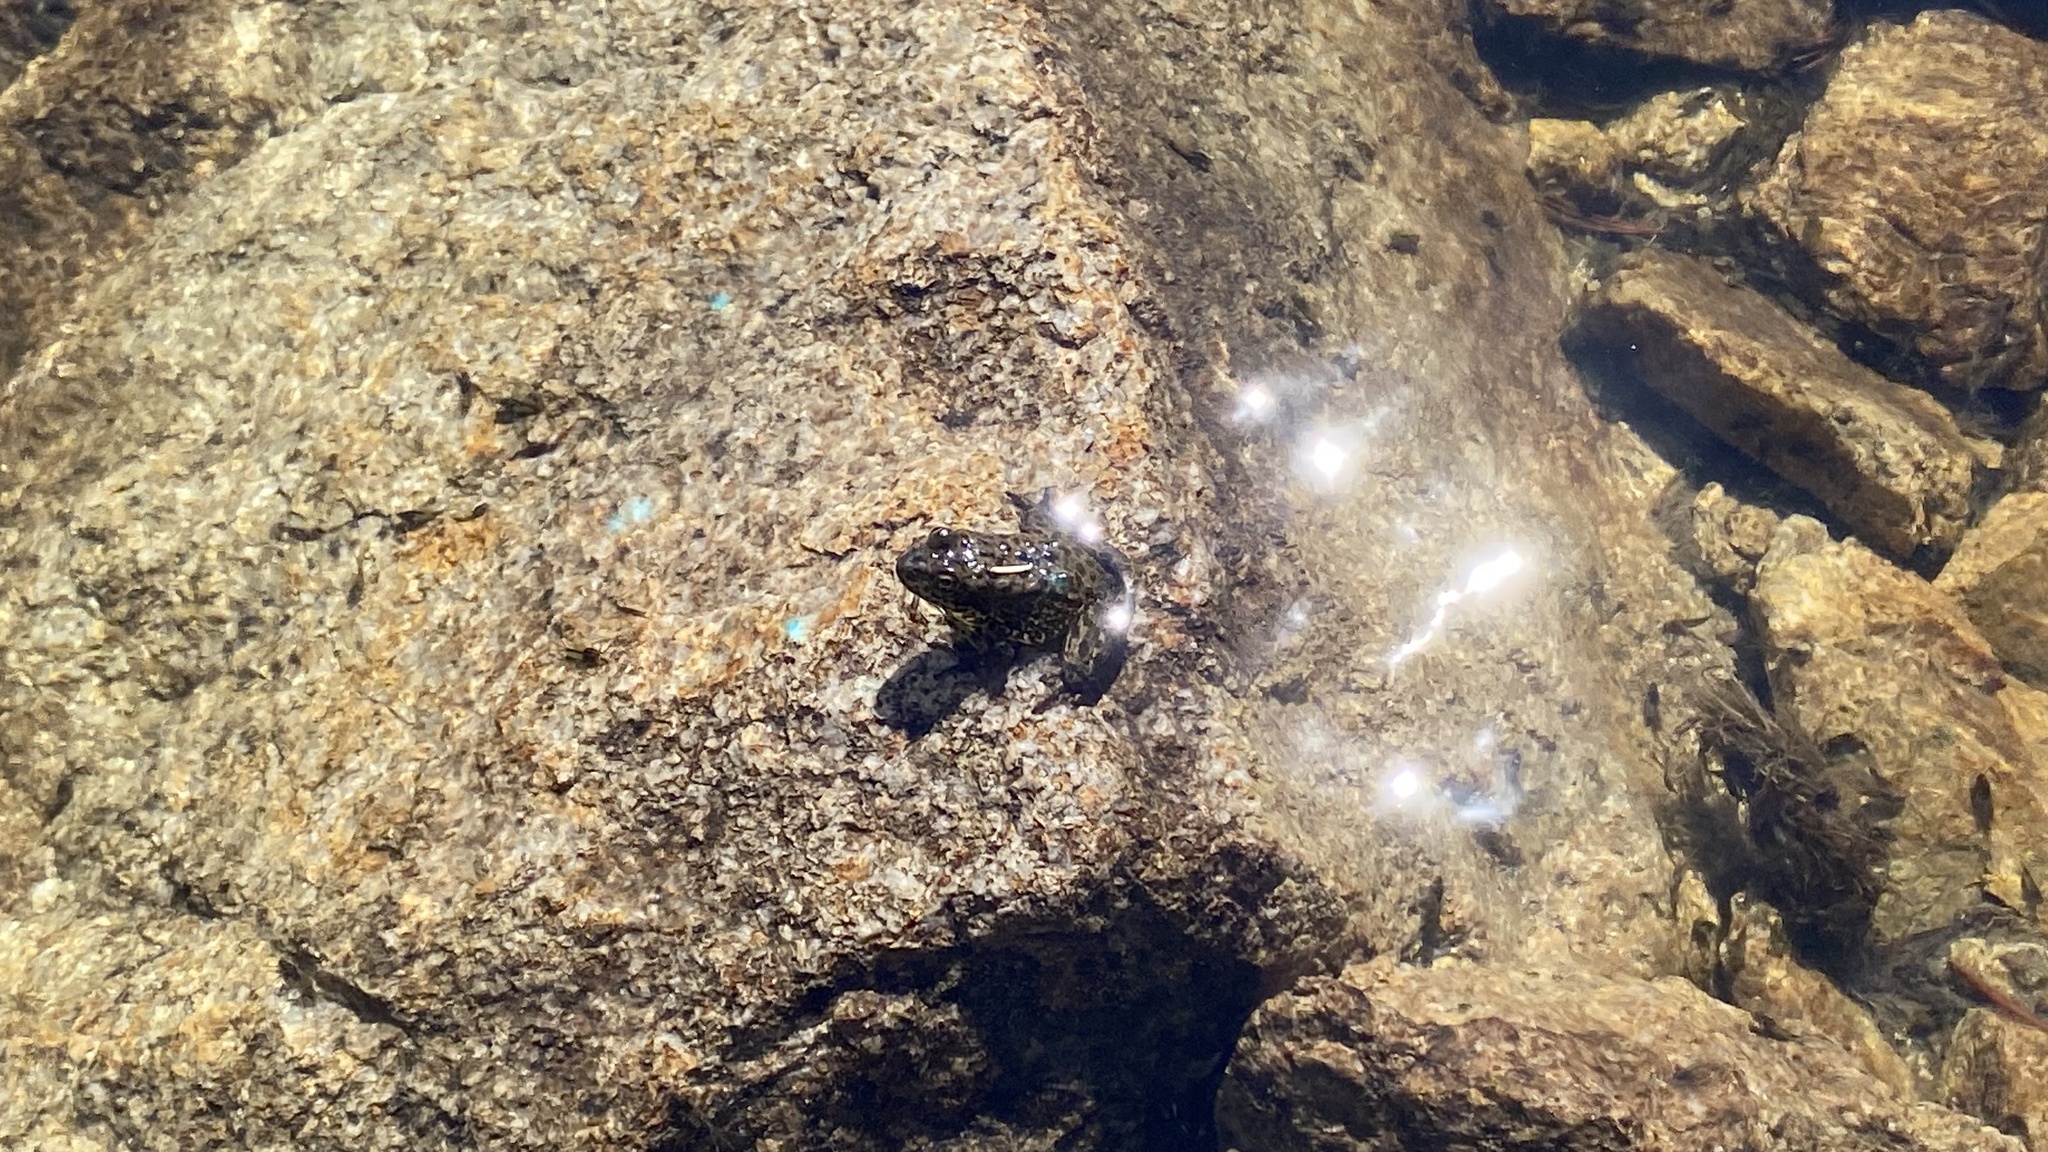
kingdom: Animalia
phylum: Chordata
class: Amphibia
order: Anura
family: Ranidae
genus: Rana
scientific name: Rana sierrae
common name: Sierra nevada yellow-legged frog
